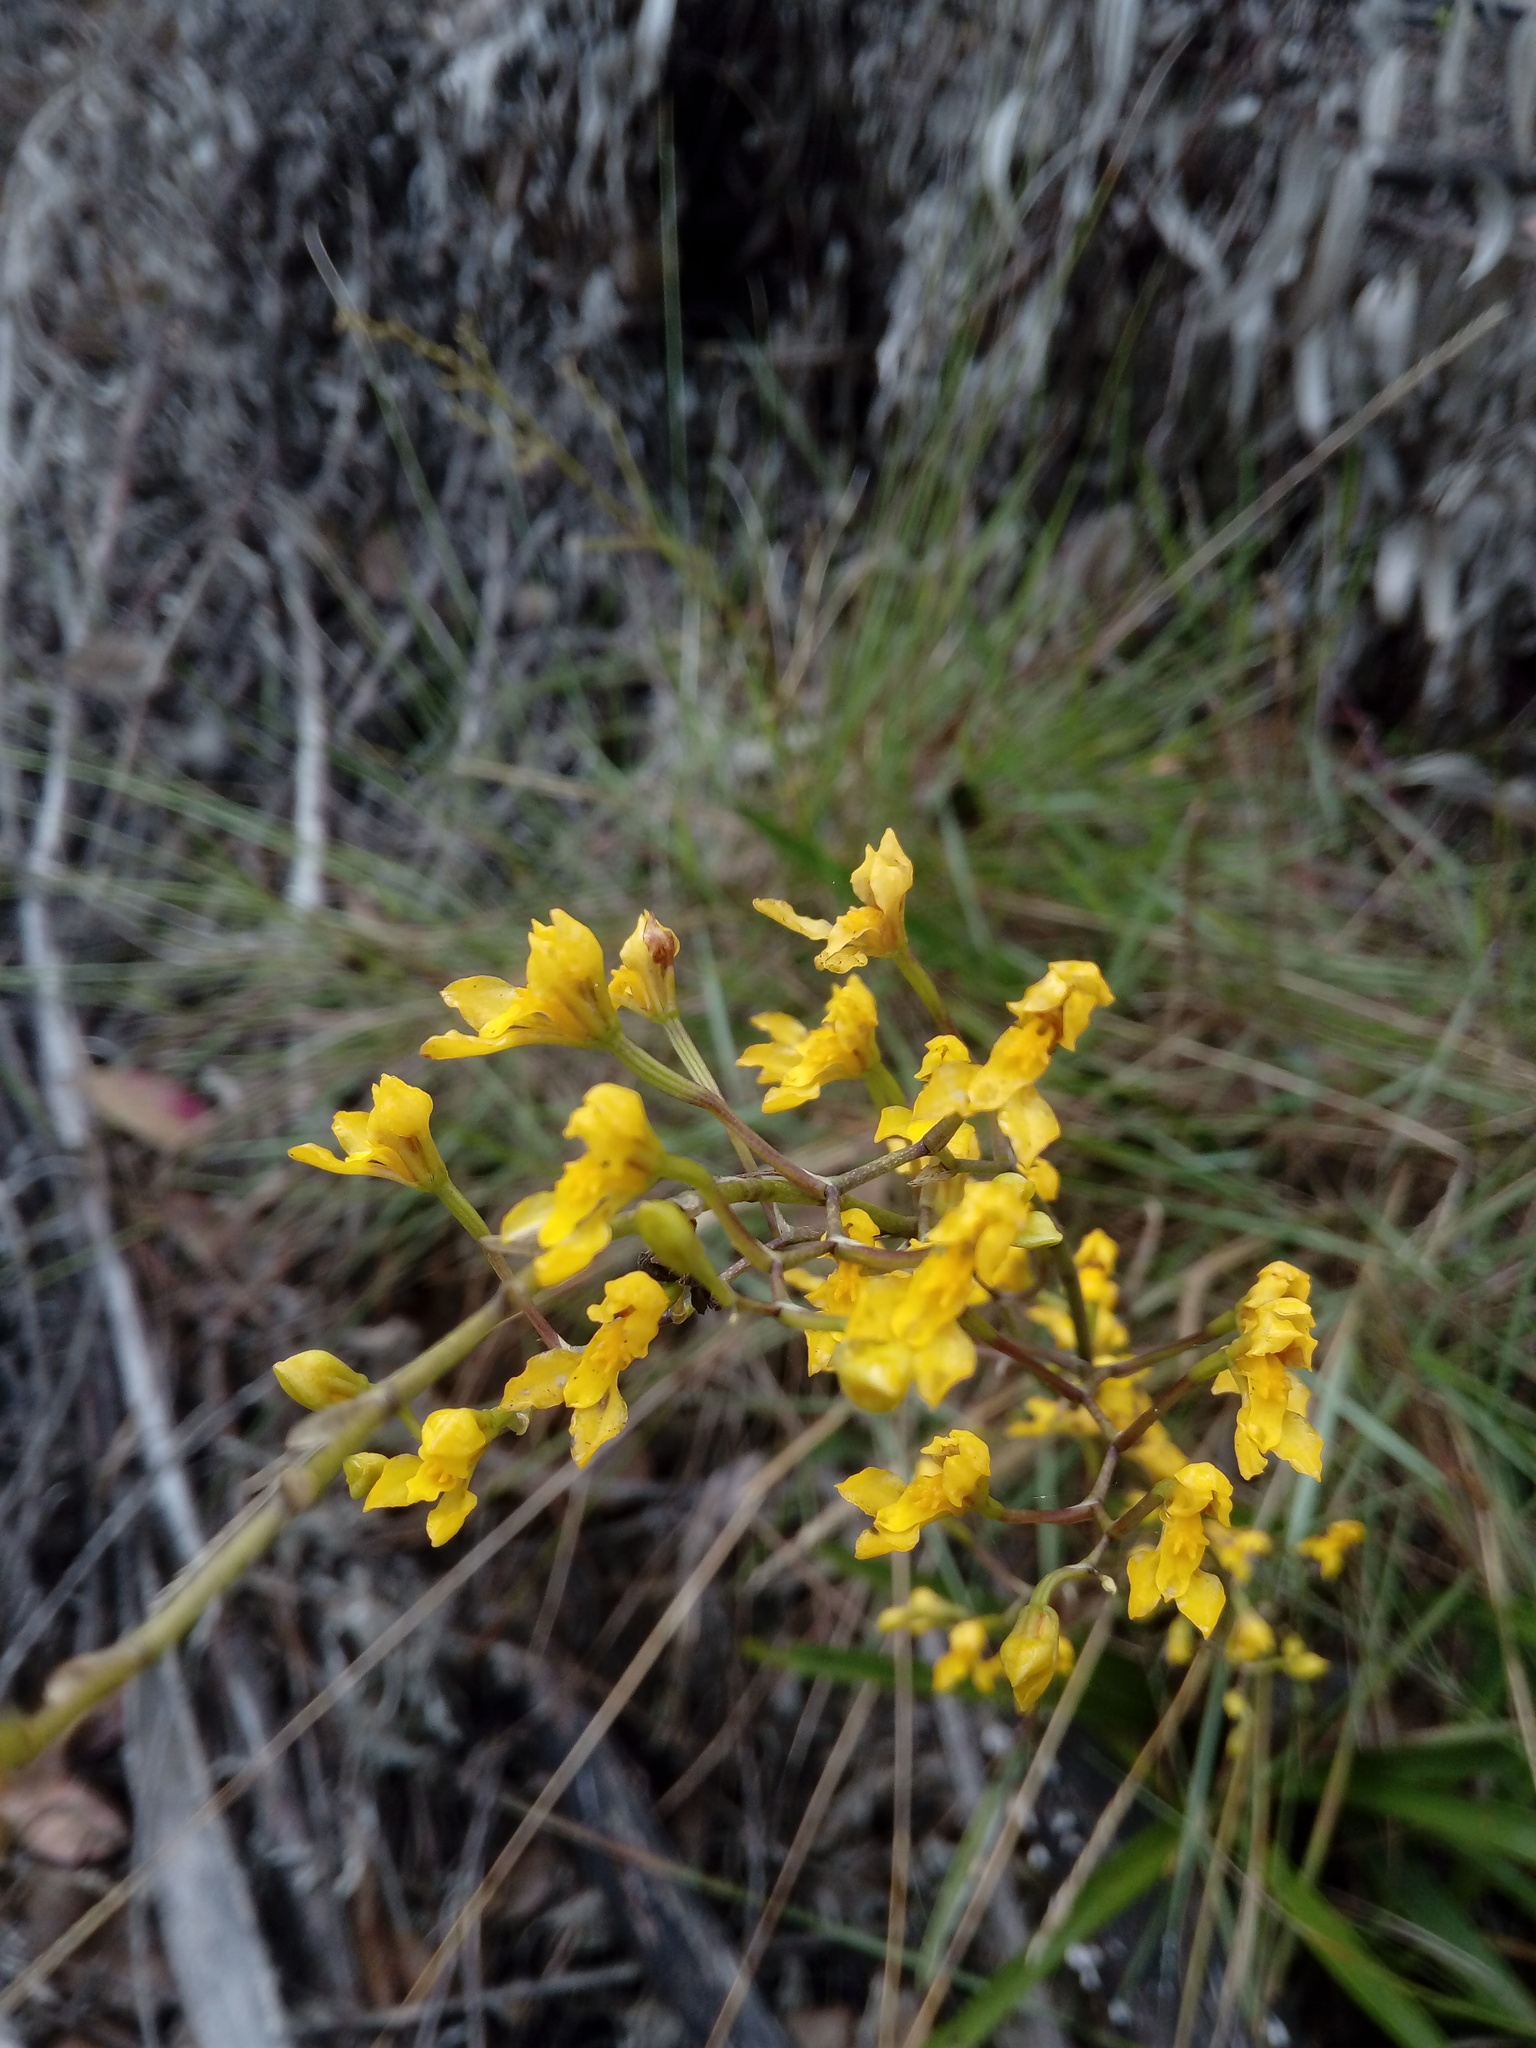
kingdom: Plantae
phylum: Tracheophyta
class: Liliopsida
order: Asparagales
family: Orchidaceae
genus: Cyrtochilum
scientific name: Cyrtochilum densiflorum
